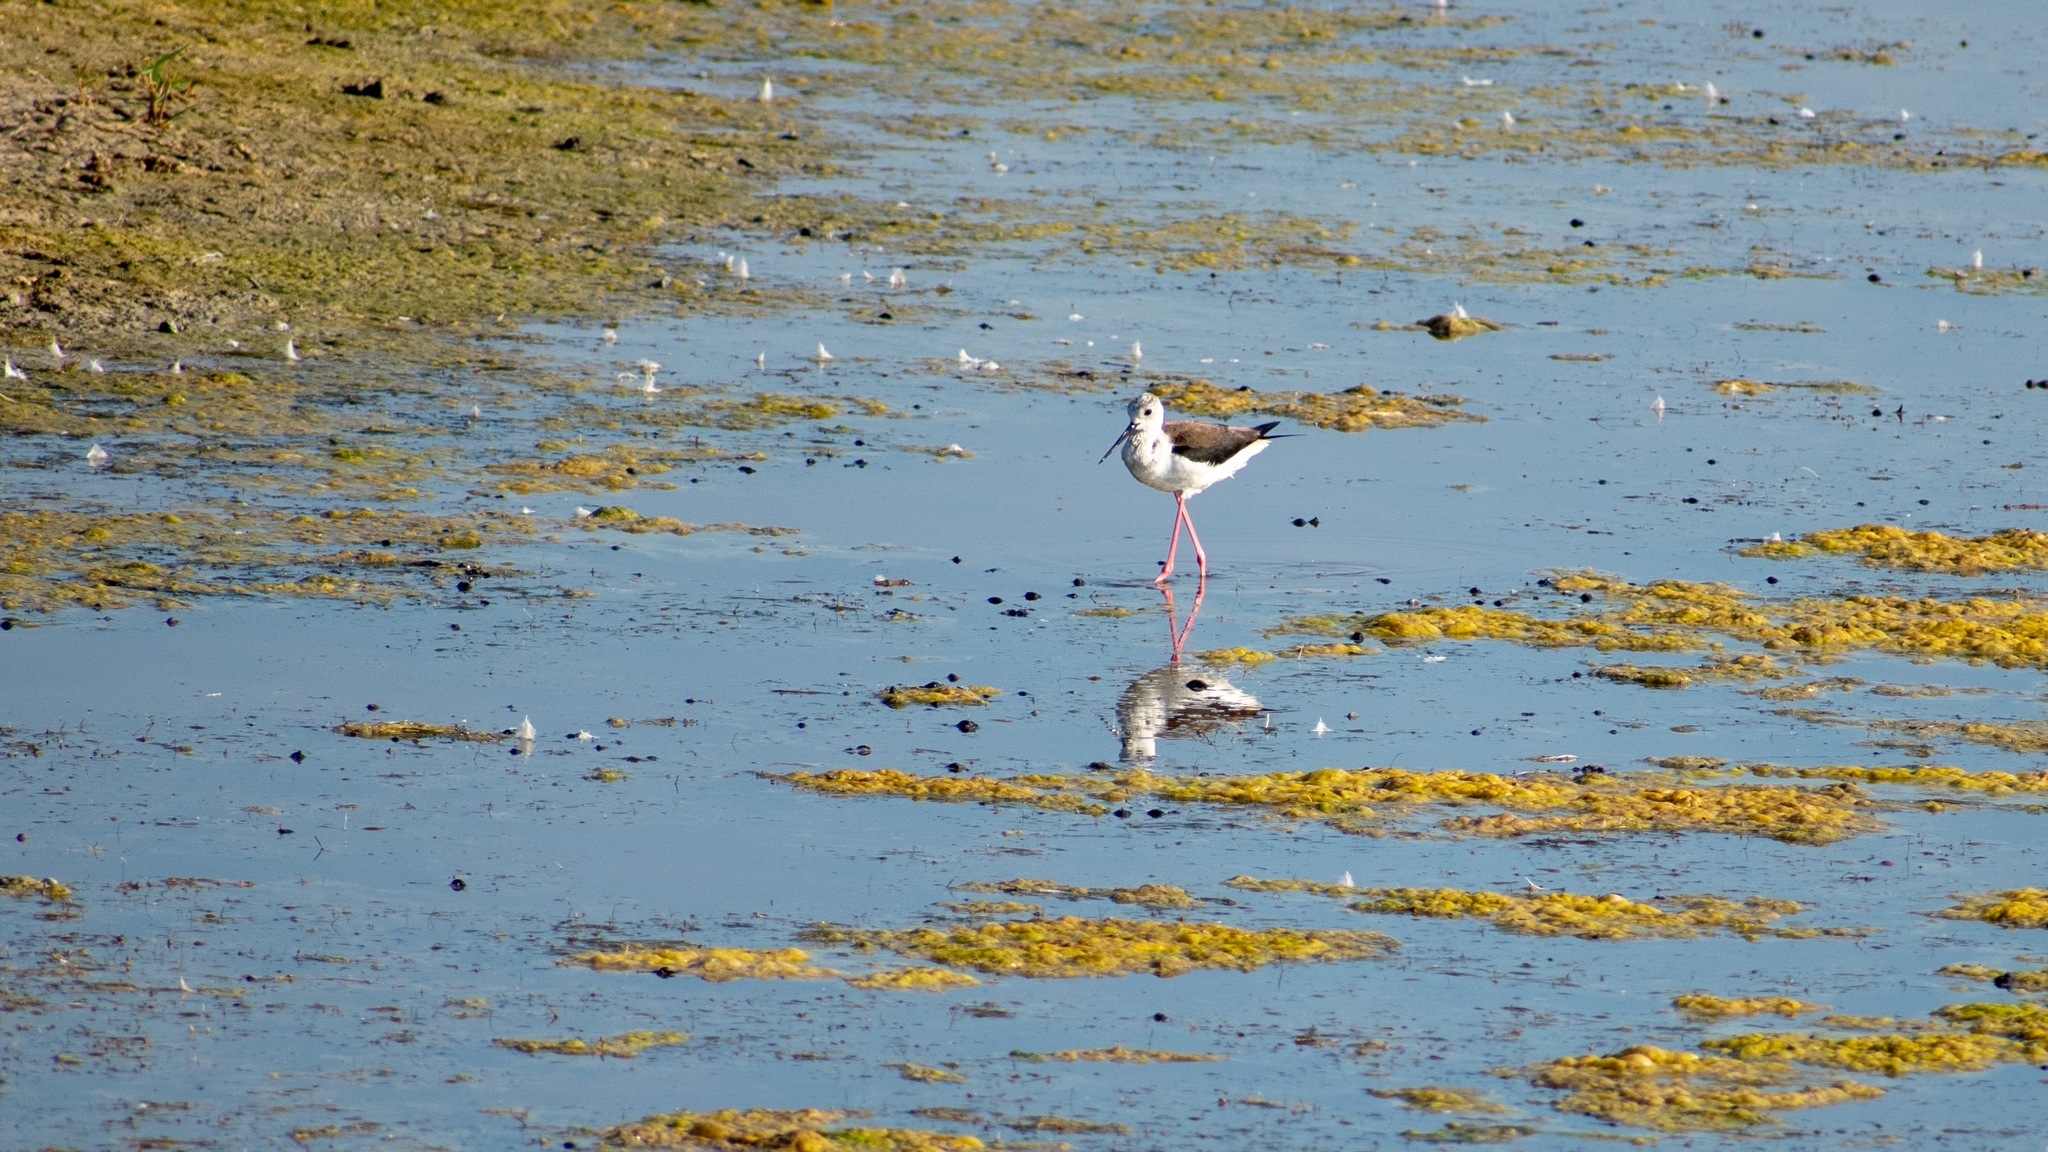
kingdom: Animalia
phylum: Chordata
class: Aves
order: Charadriiformes
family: Recurvirostridae
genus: Himantopus
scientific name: Himantopus himantopus
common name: Black-winged stilt
